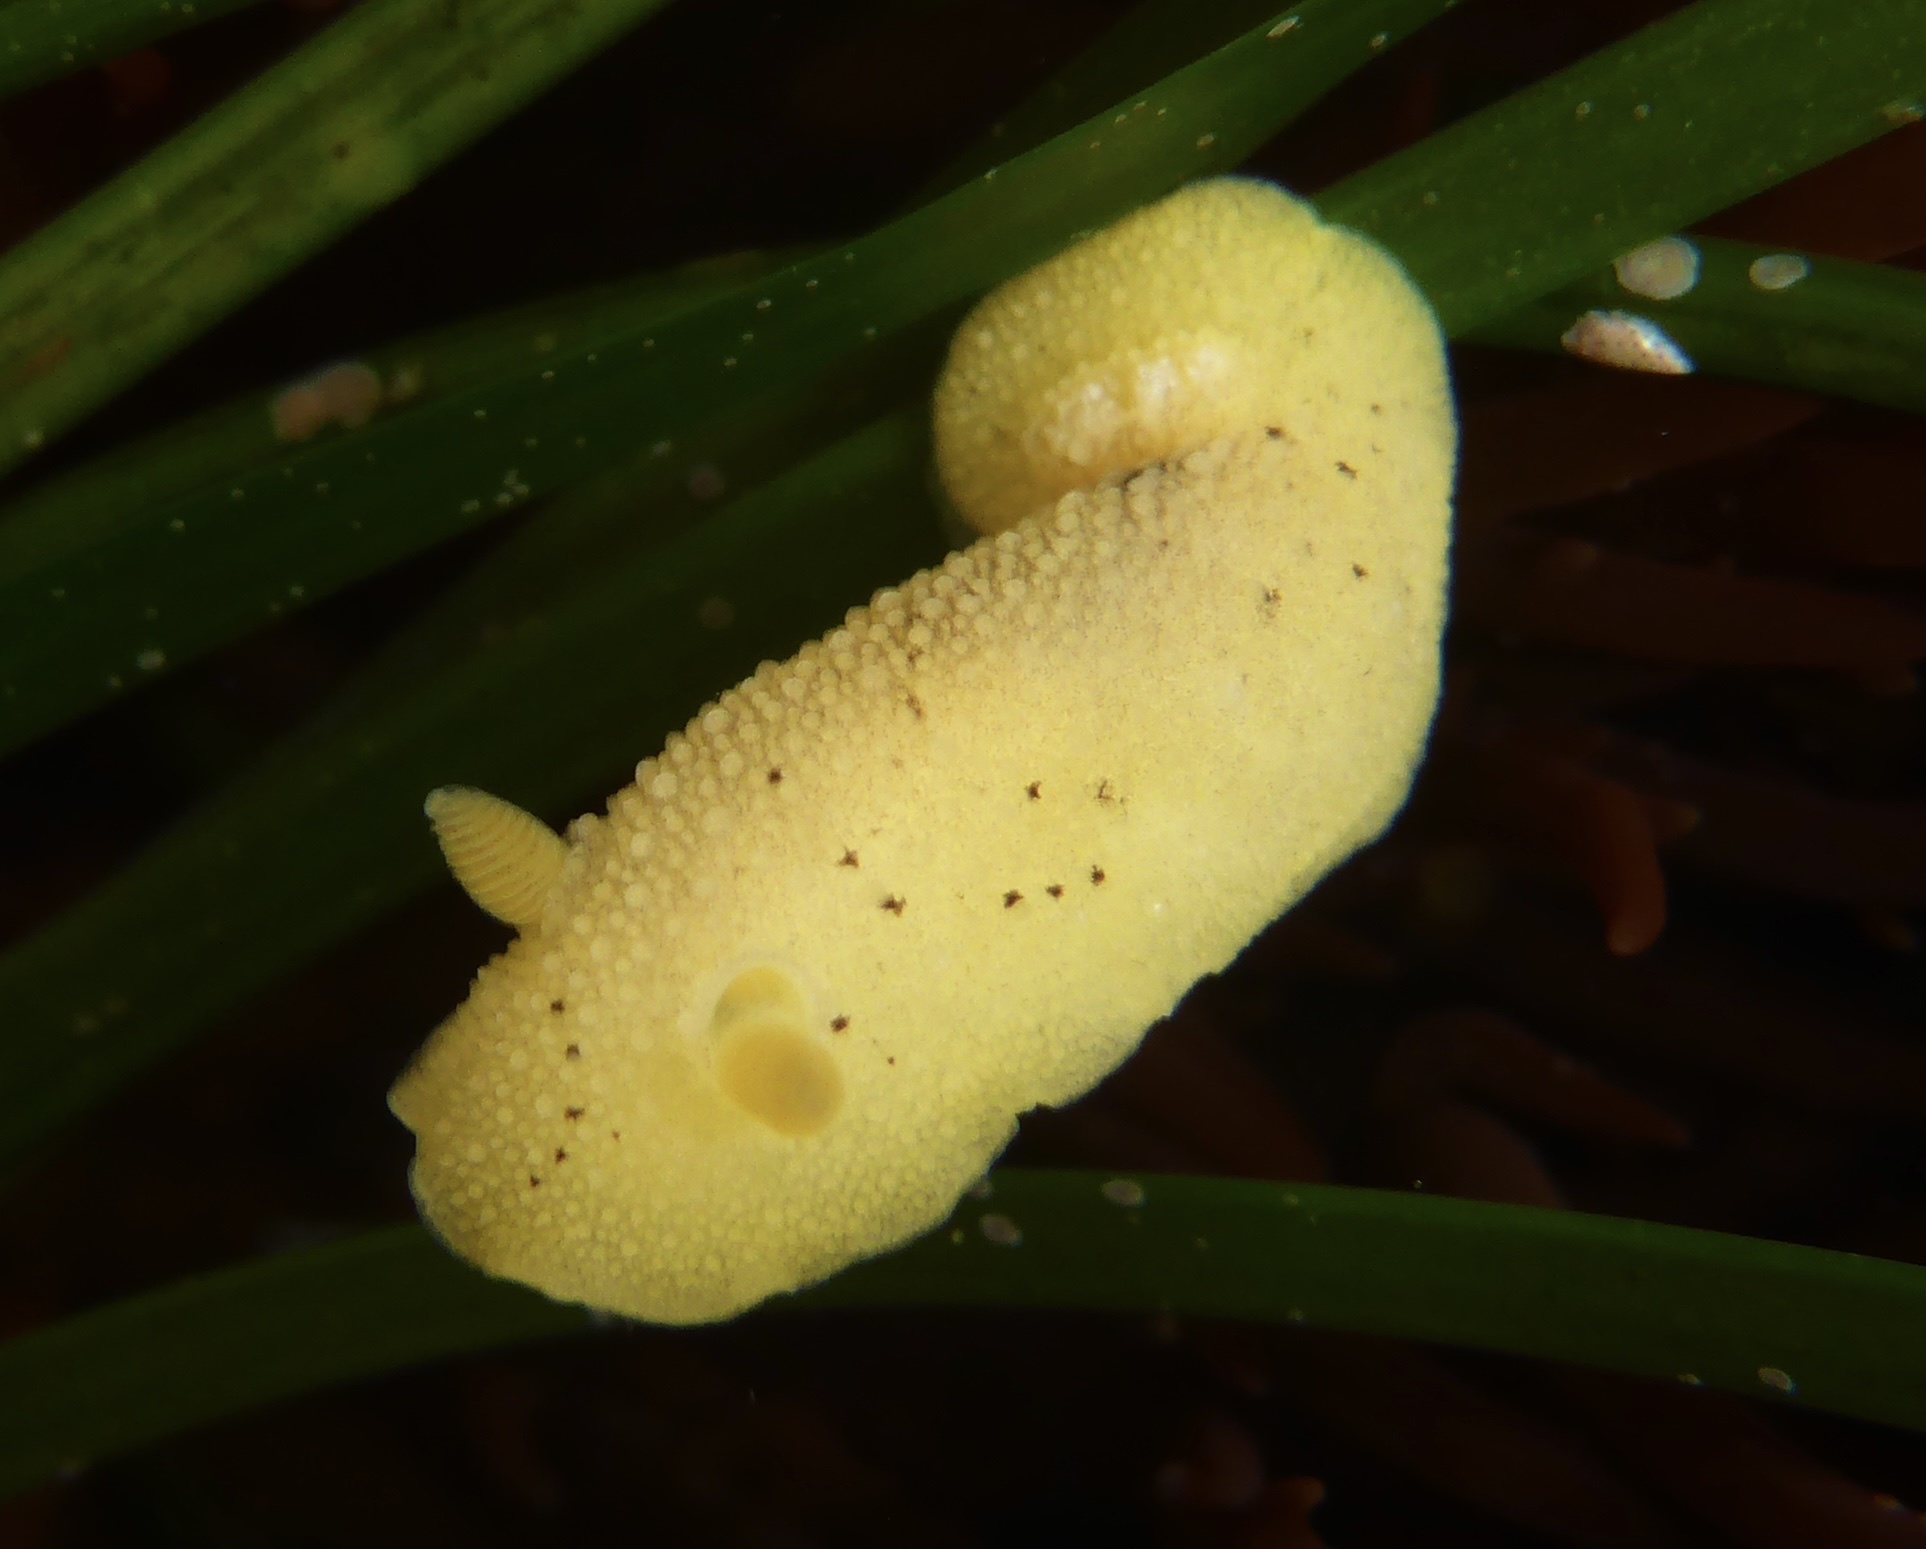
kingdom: Animalia
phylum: Mollusca
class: Gastropoda
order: Nudibranchia
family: Discodorididae
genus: Geitodoris
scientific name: Geitodoris heathi
